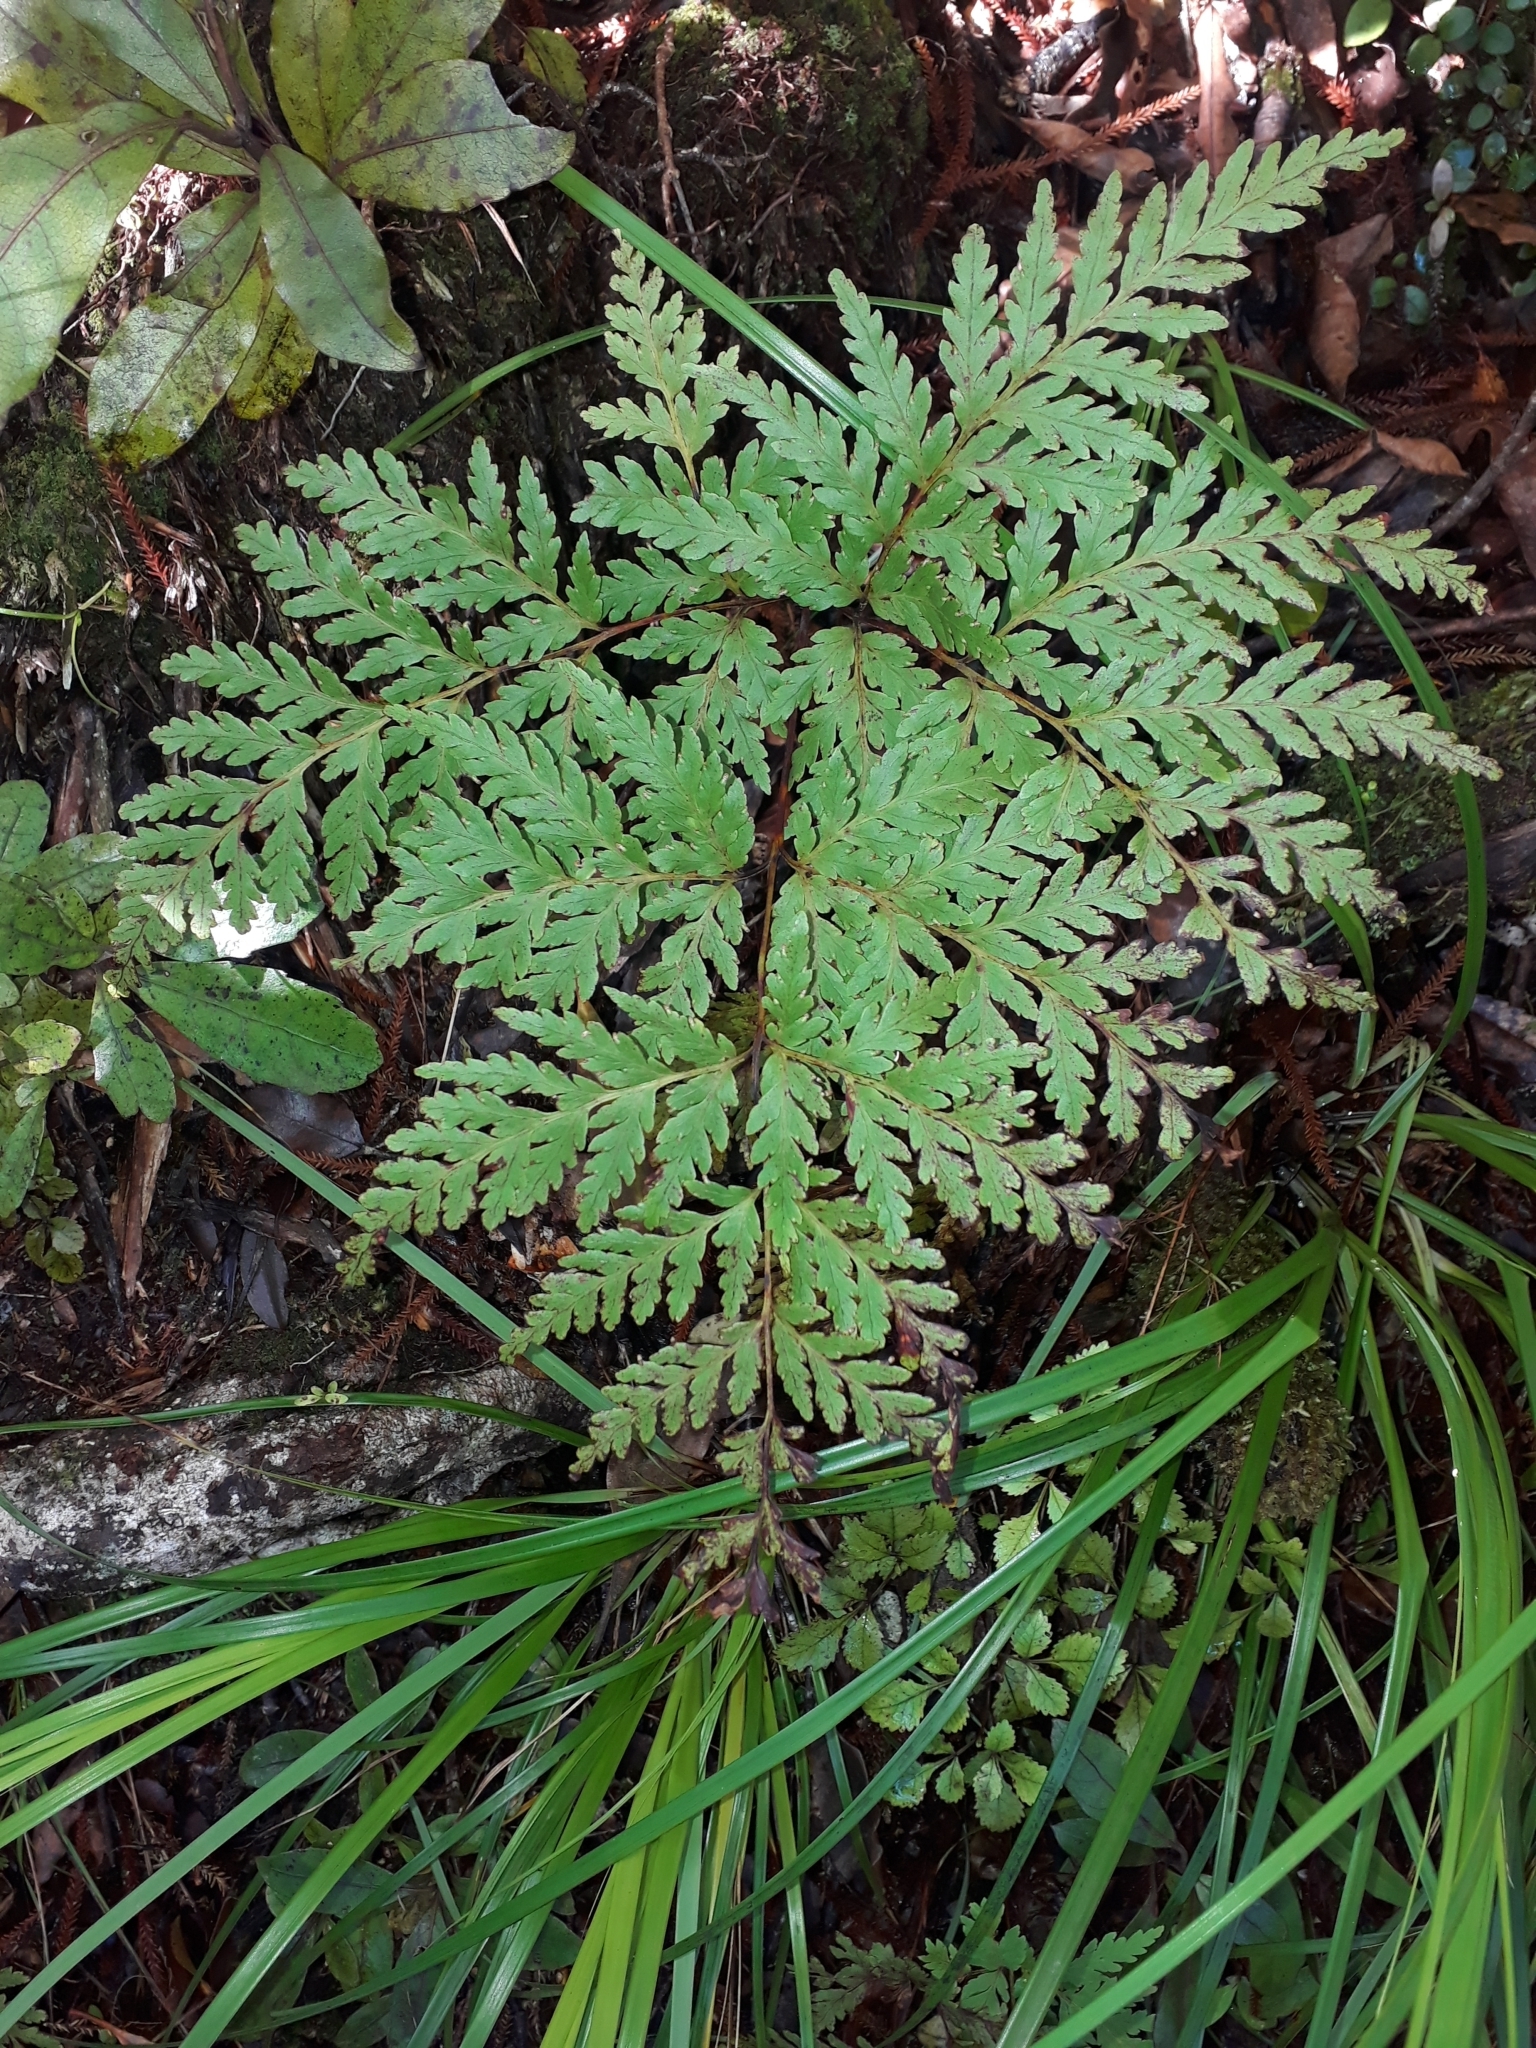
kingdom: Plantae
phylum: Tracheophyta
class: Polypodiopsida
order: Cyatheales
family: Loxsomataceae
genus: Loxsoma
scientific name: Loxsoma cunninghamii
